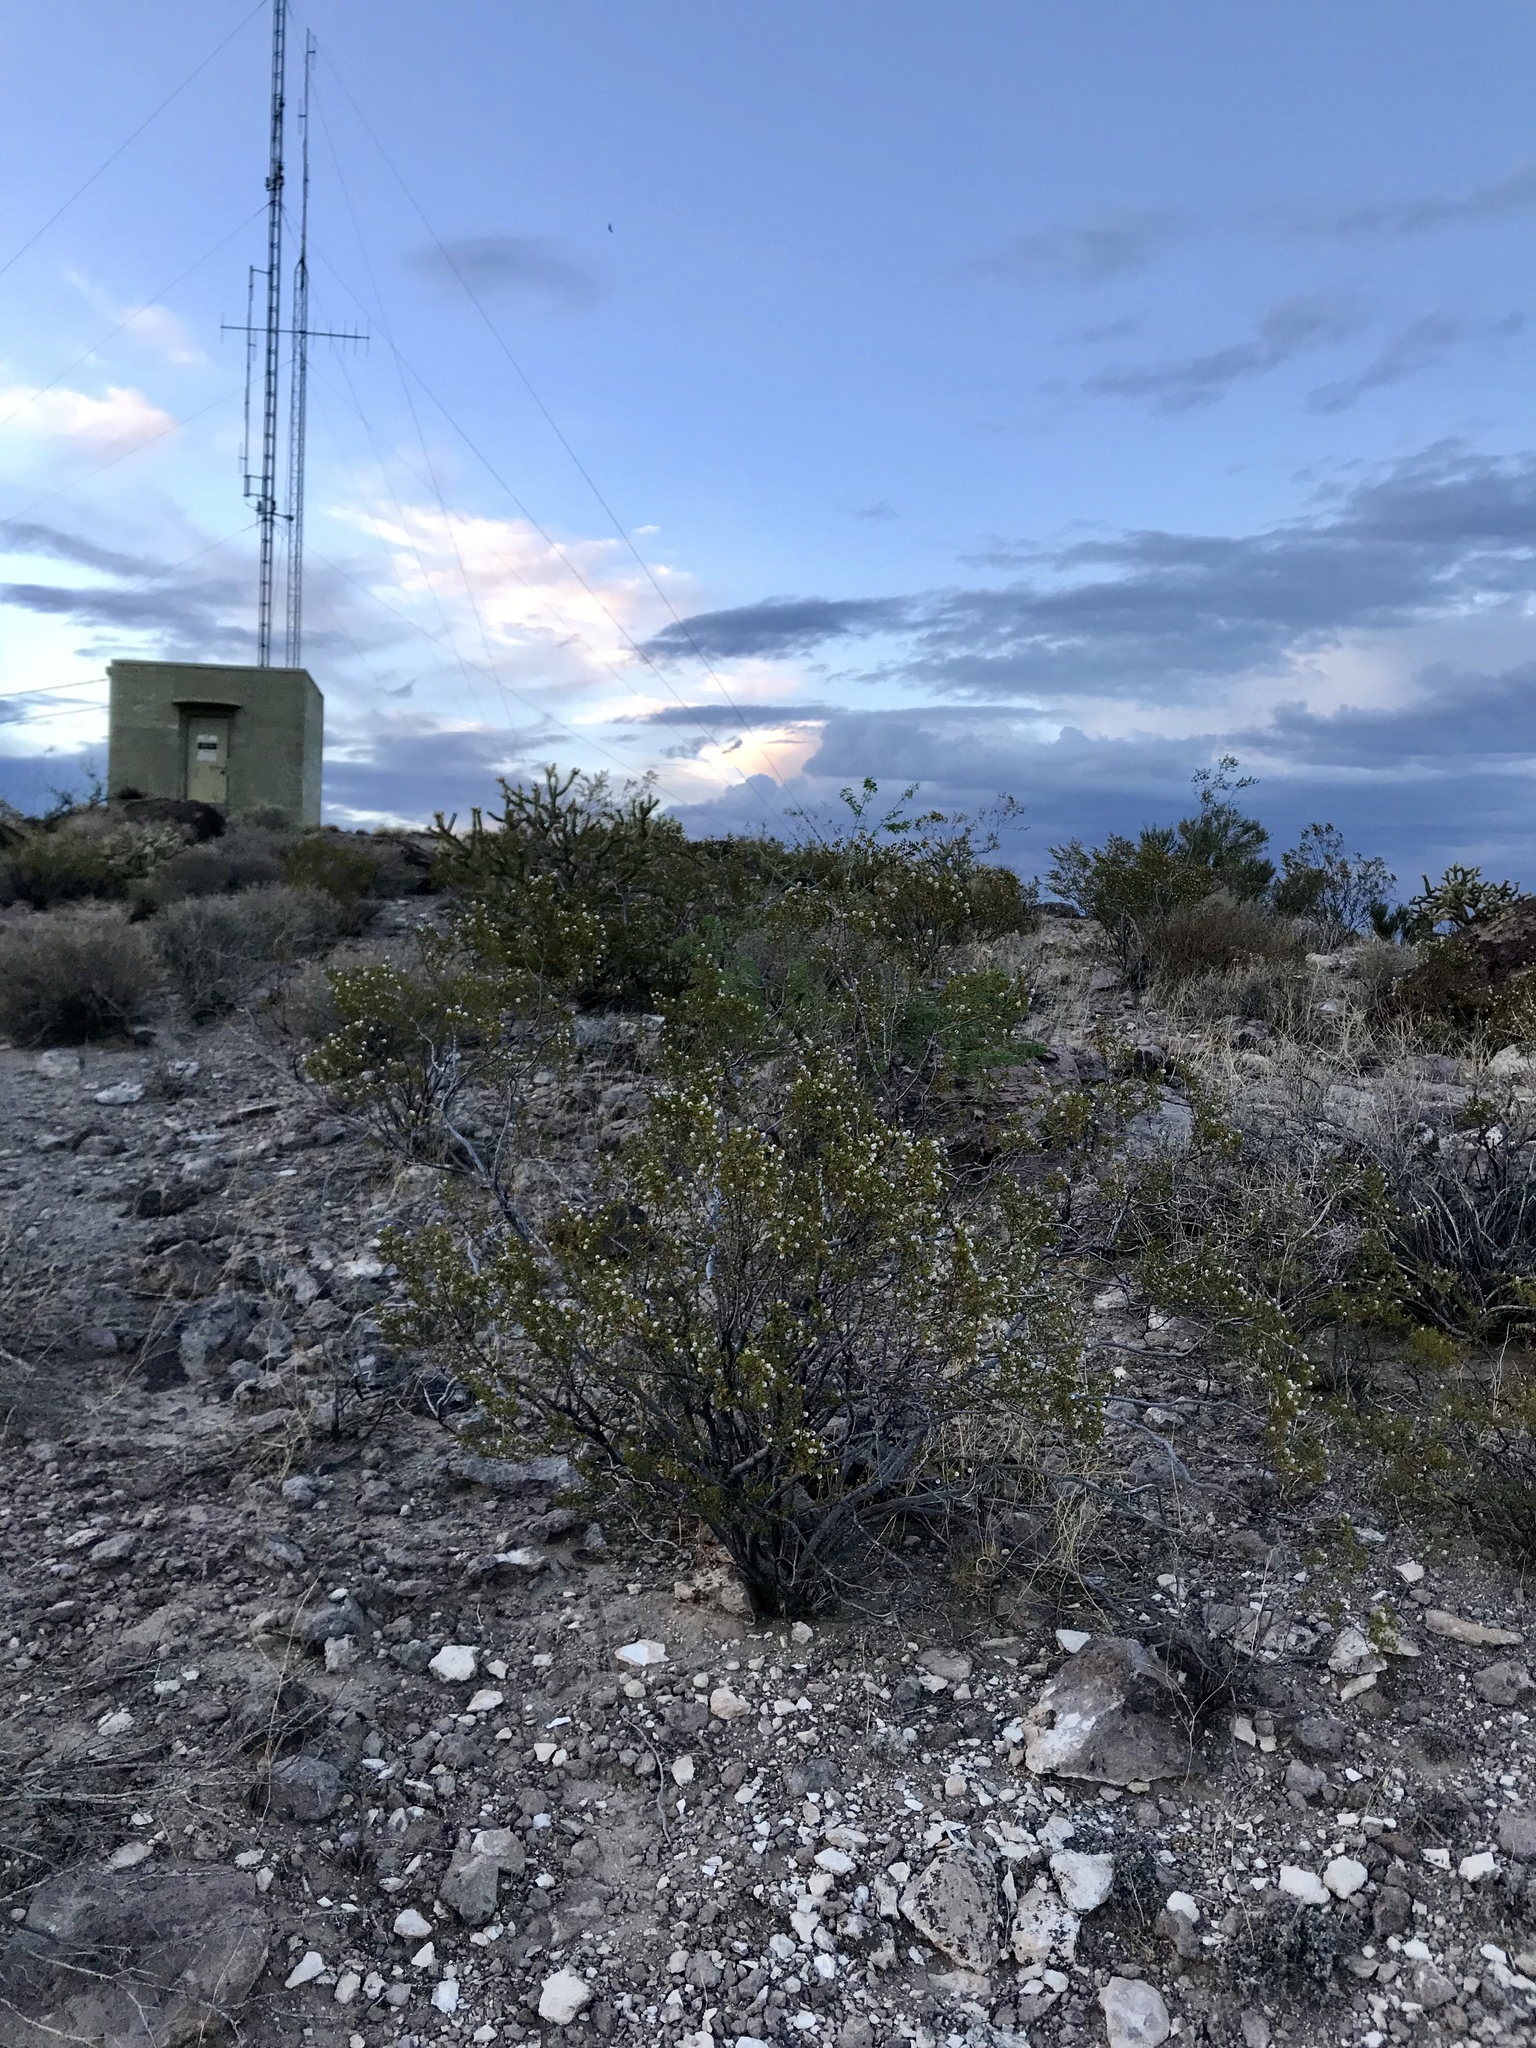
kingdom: Plantae
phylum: Tracheophyta
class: Magnoliopsida
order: Zygophyllales
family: Zygophyllaceae
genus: Larrea
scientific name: Larrea tridentata
